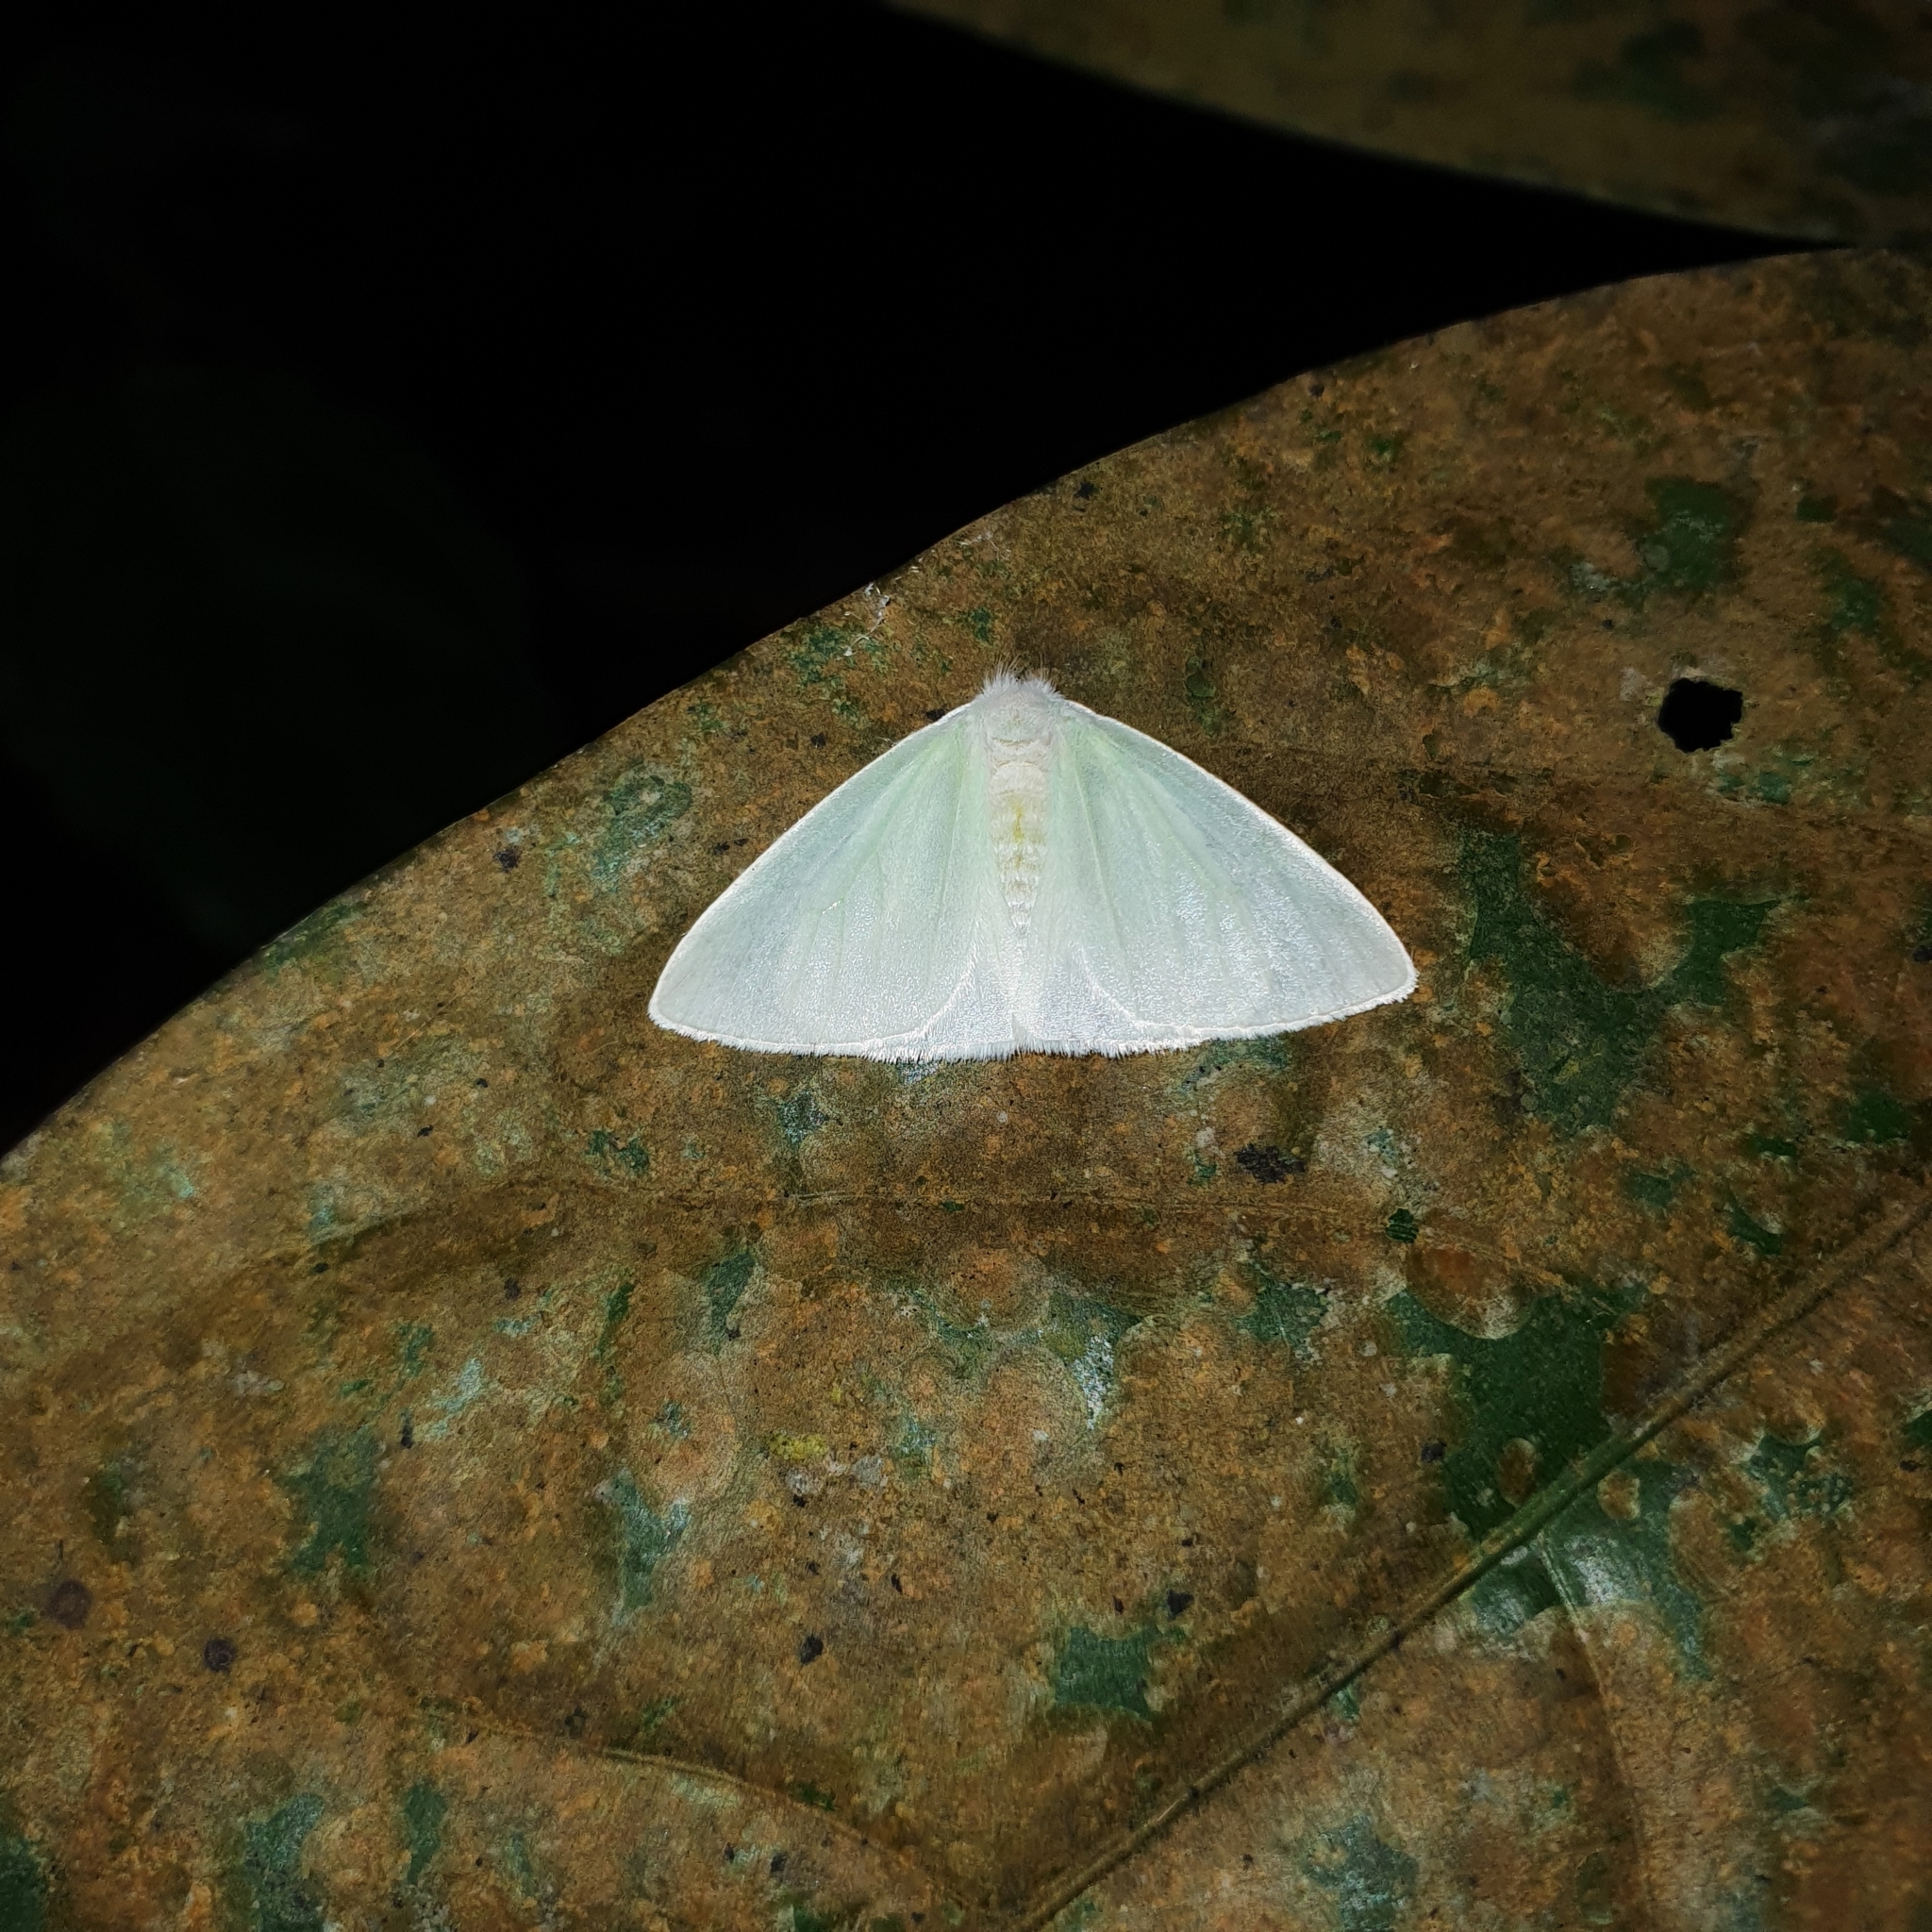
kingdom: Animalia
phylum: Arthropoda
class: Insecta
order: Lepidoptera
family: Erebidae
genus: Arctornis
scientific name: Arctornis singaporensis
